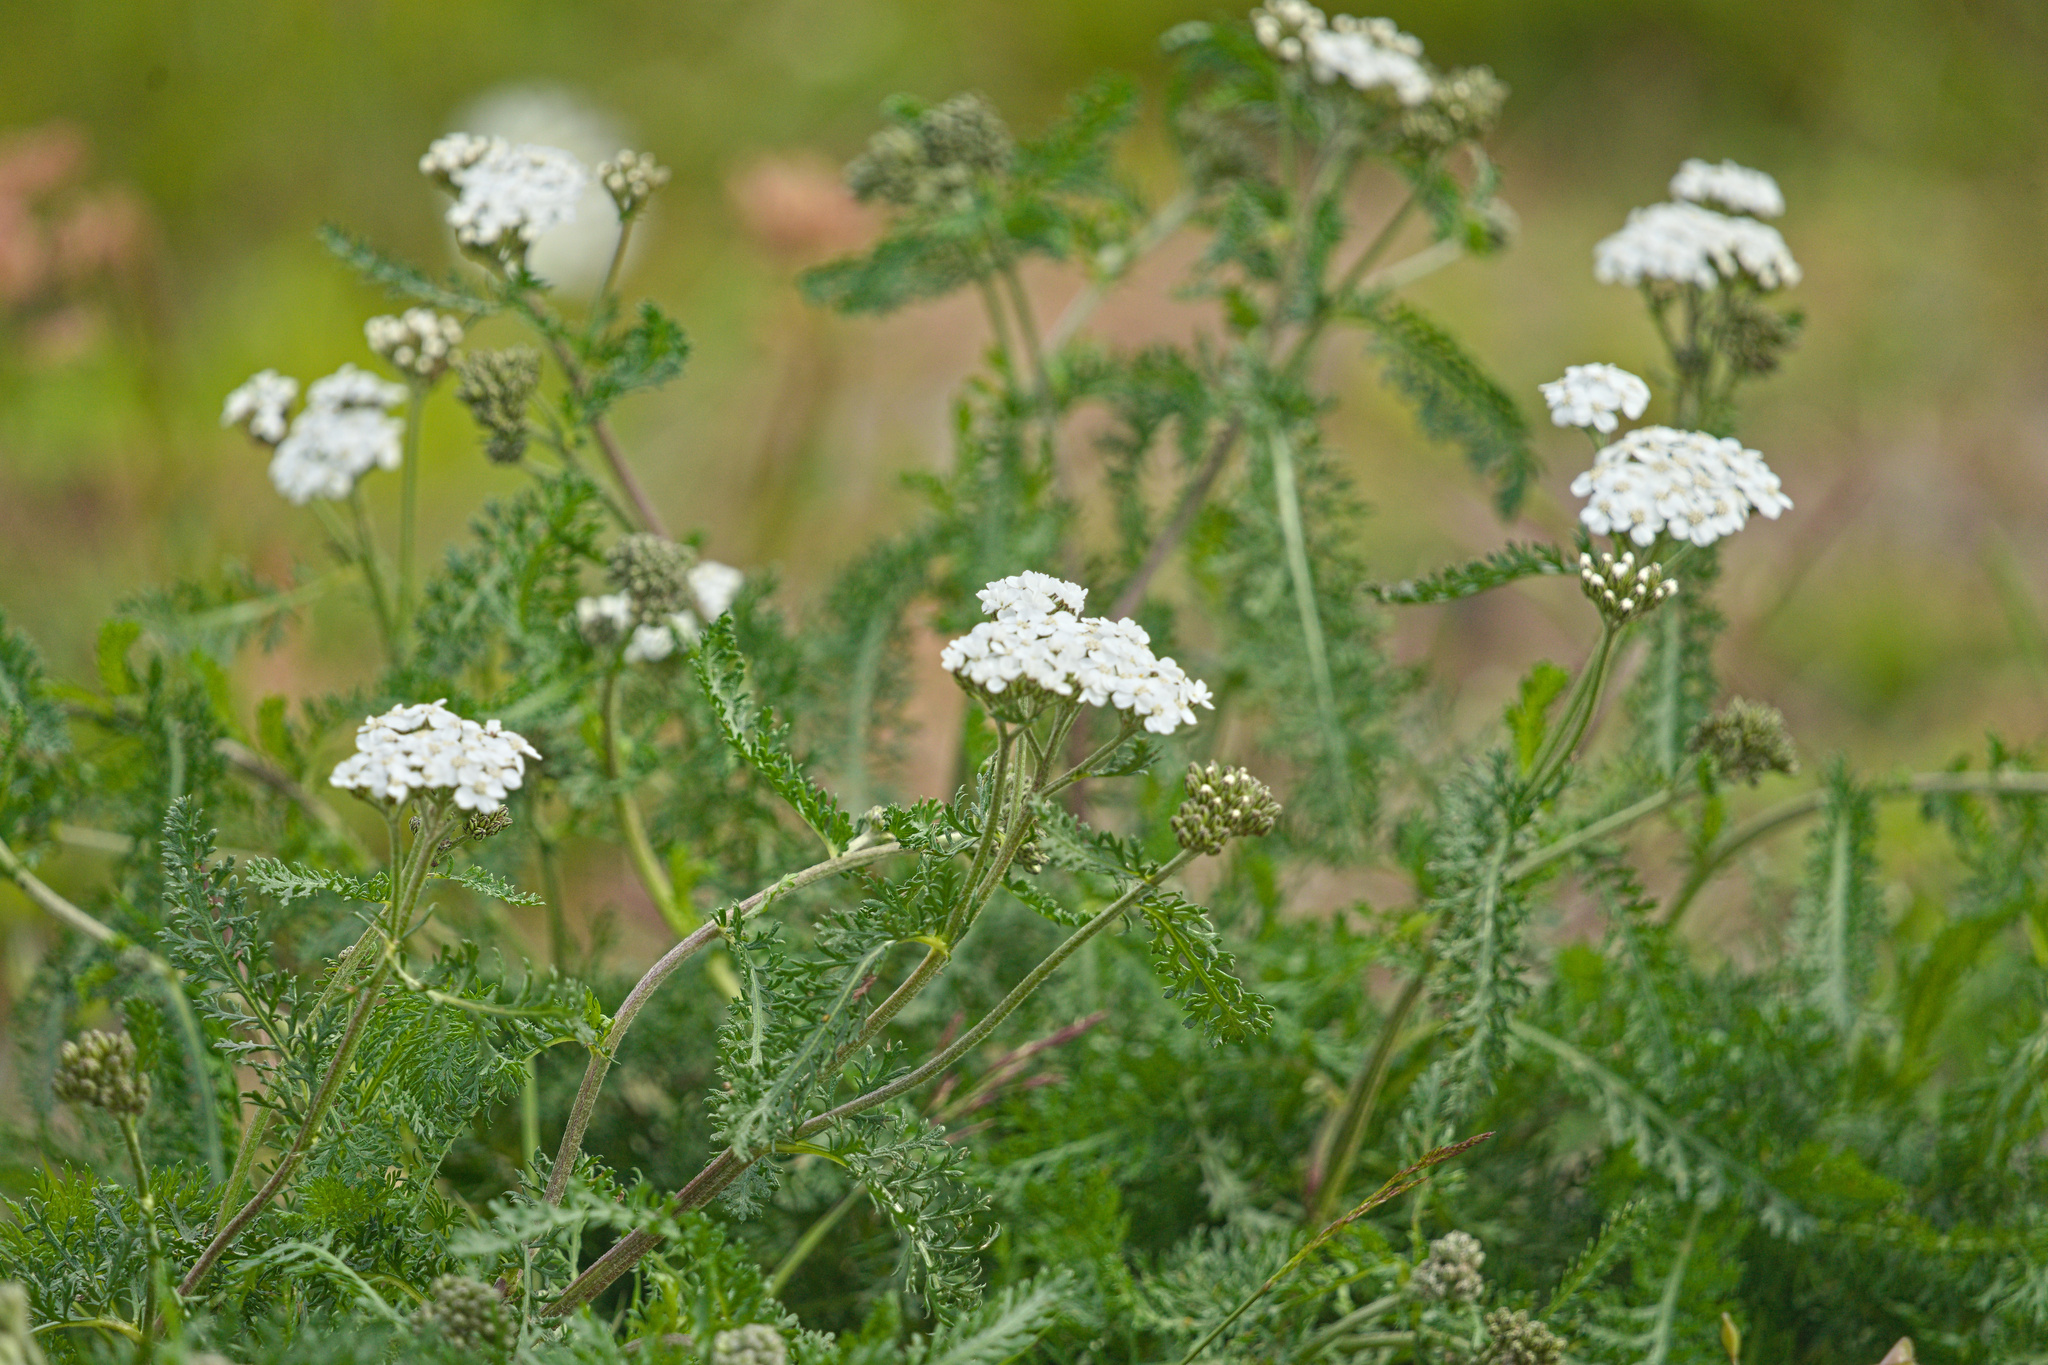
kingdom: Plantae
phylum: Tracheophyta
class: Magnoliopsida
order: Asterales
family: Asteraceae
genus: Achillea
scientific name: Achillea millefolium
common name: Yarrow
